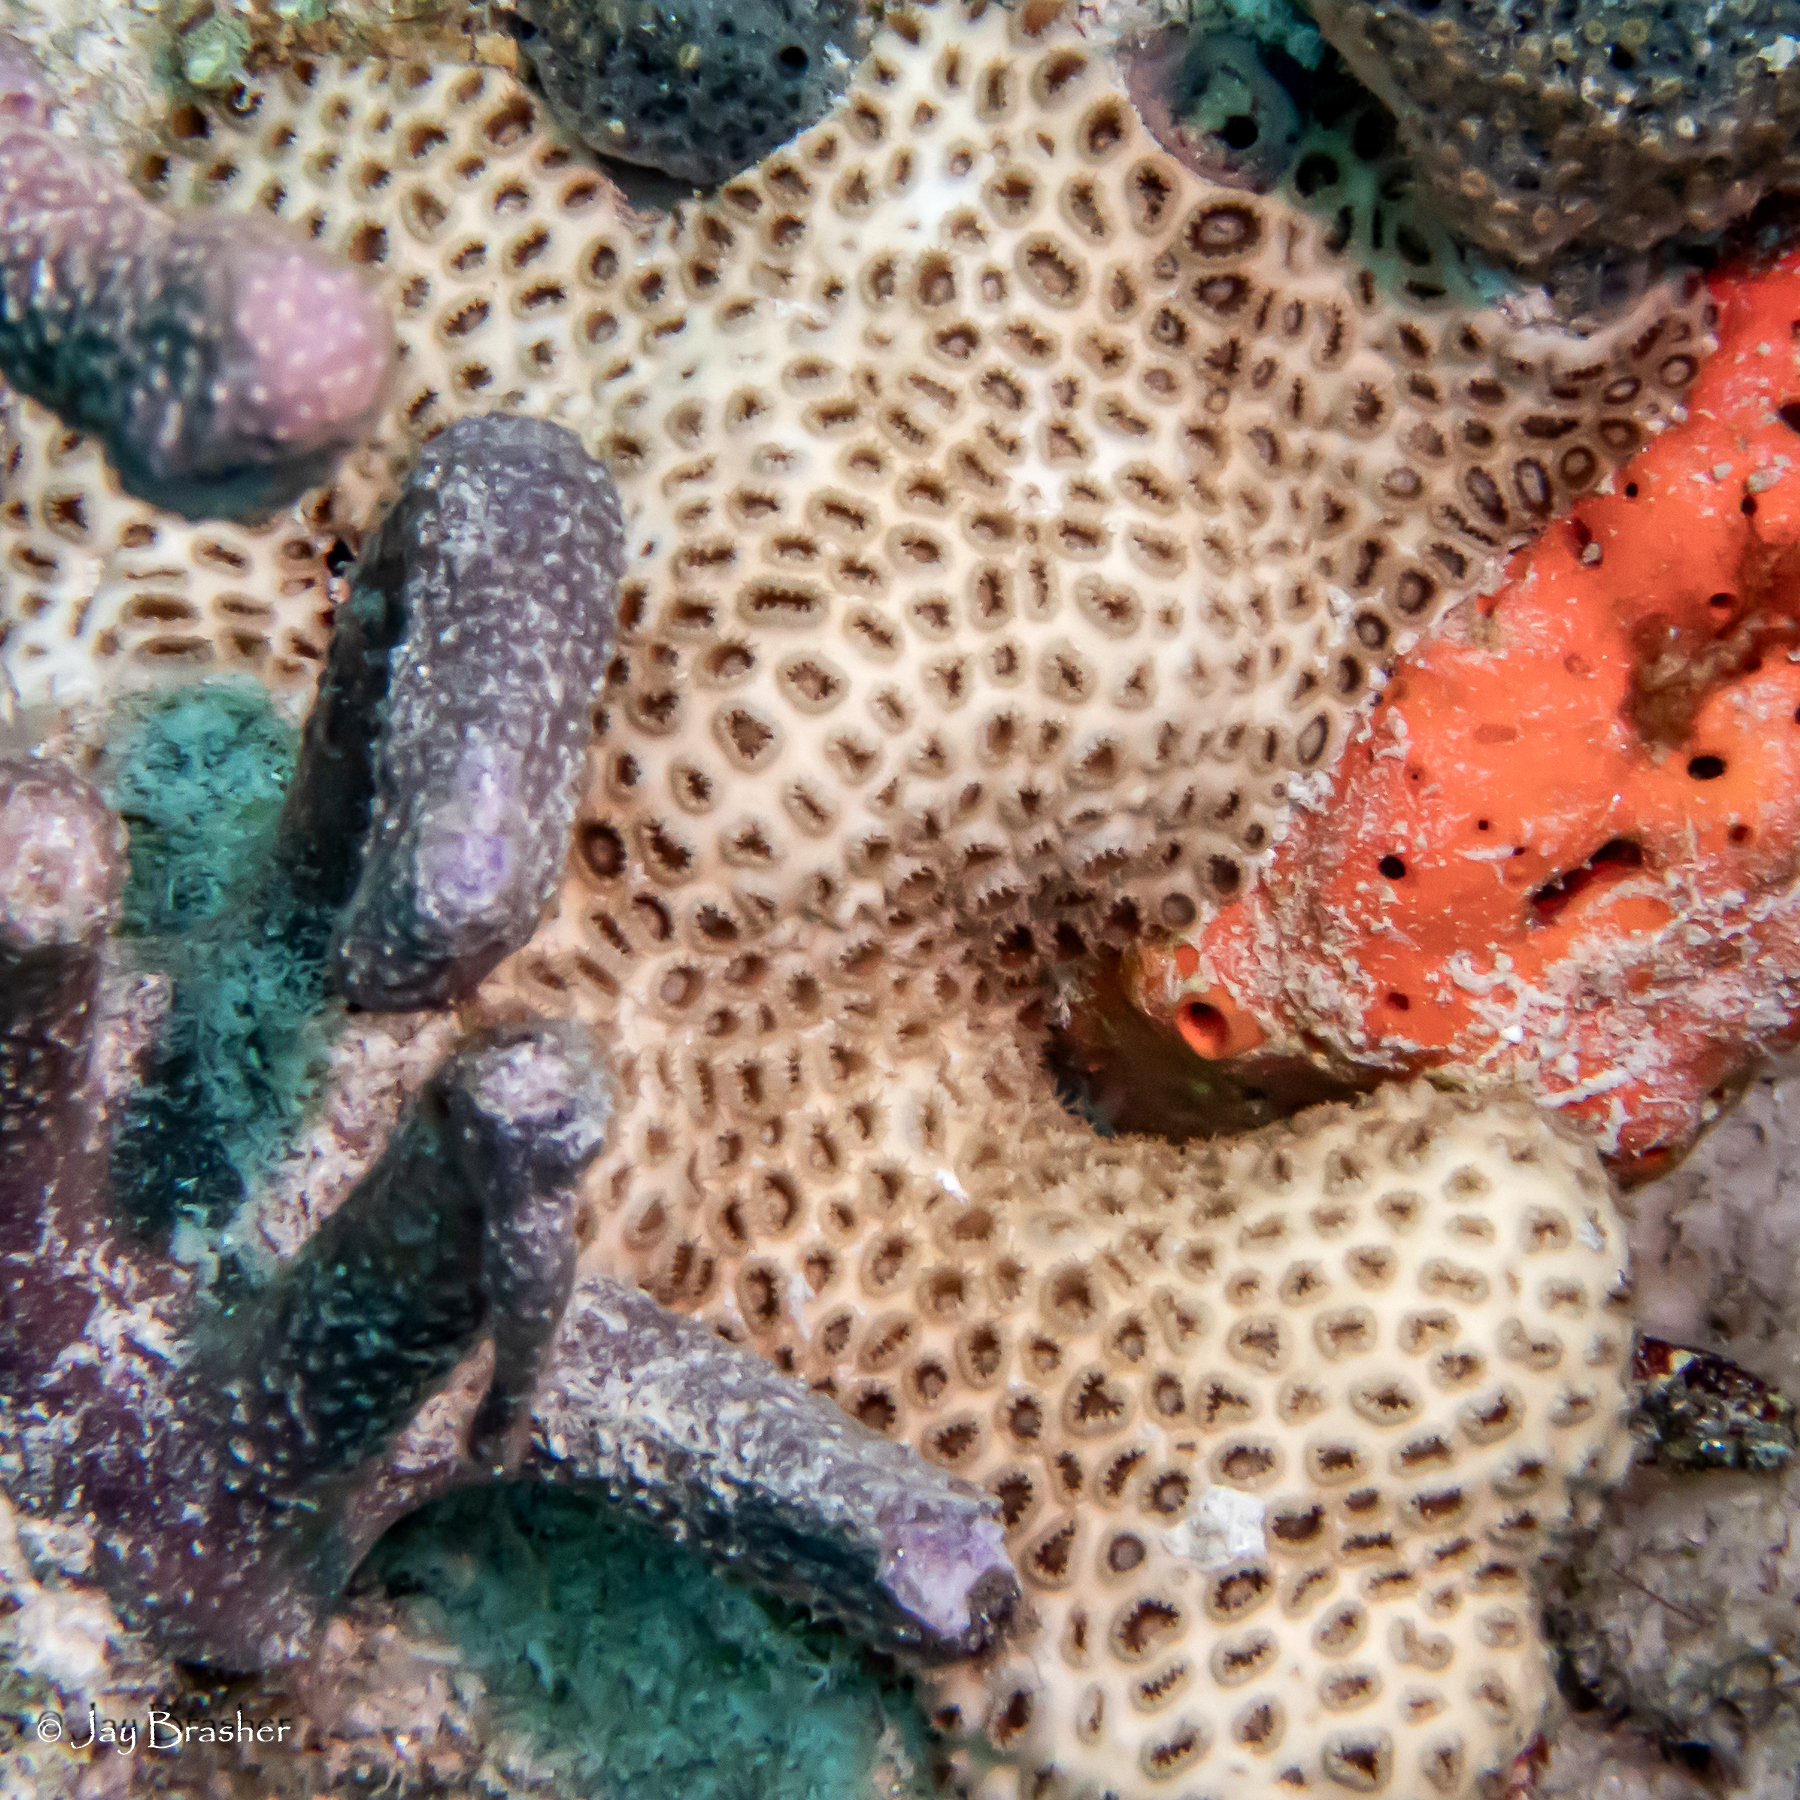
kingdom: Animalia
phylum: Cnidaria
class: Anthozoa
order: Zoantharia
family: Sphenopidae
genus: Palythoa
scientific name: Palythoa caribaeorum
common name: Encrusting colonial anemone
